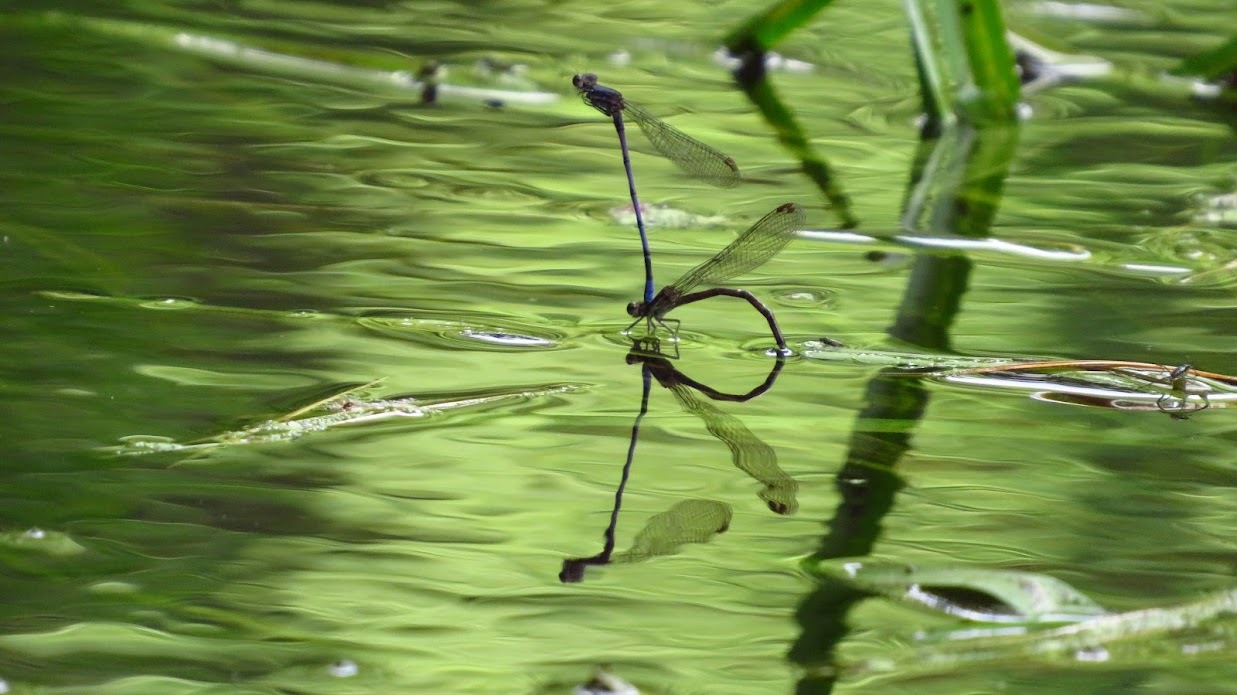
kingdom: Animalia
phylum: Arthropoda
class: Insecta
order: Odonata
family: Coenagrionidae
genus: Argia
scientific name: Argia fumipennis
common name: Variable dancer
